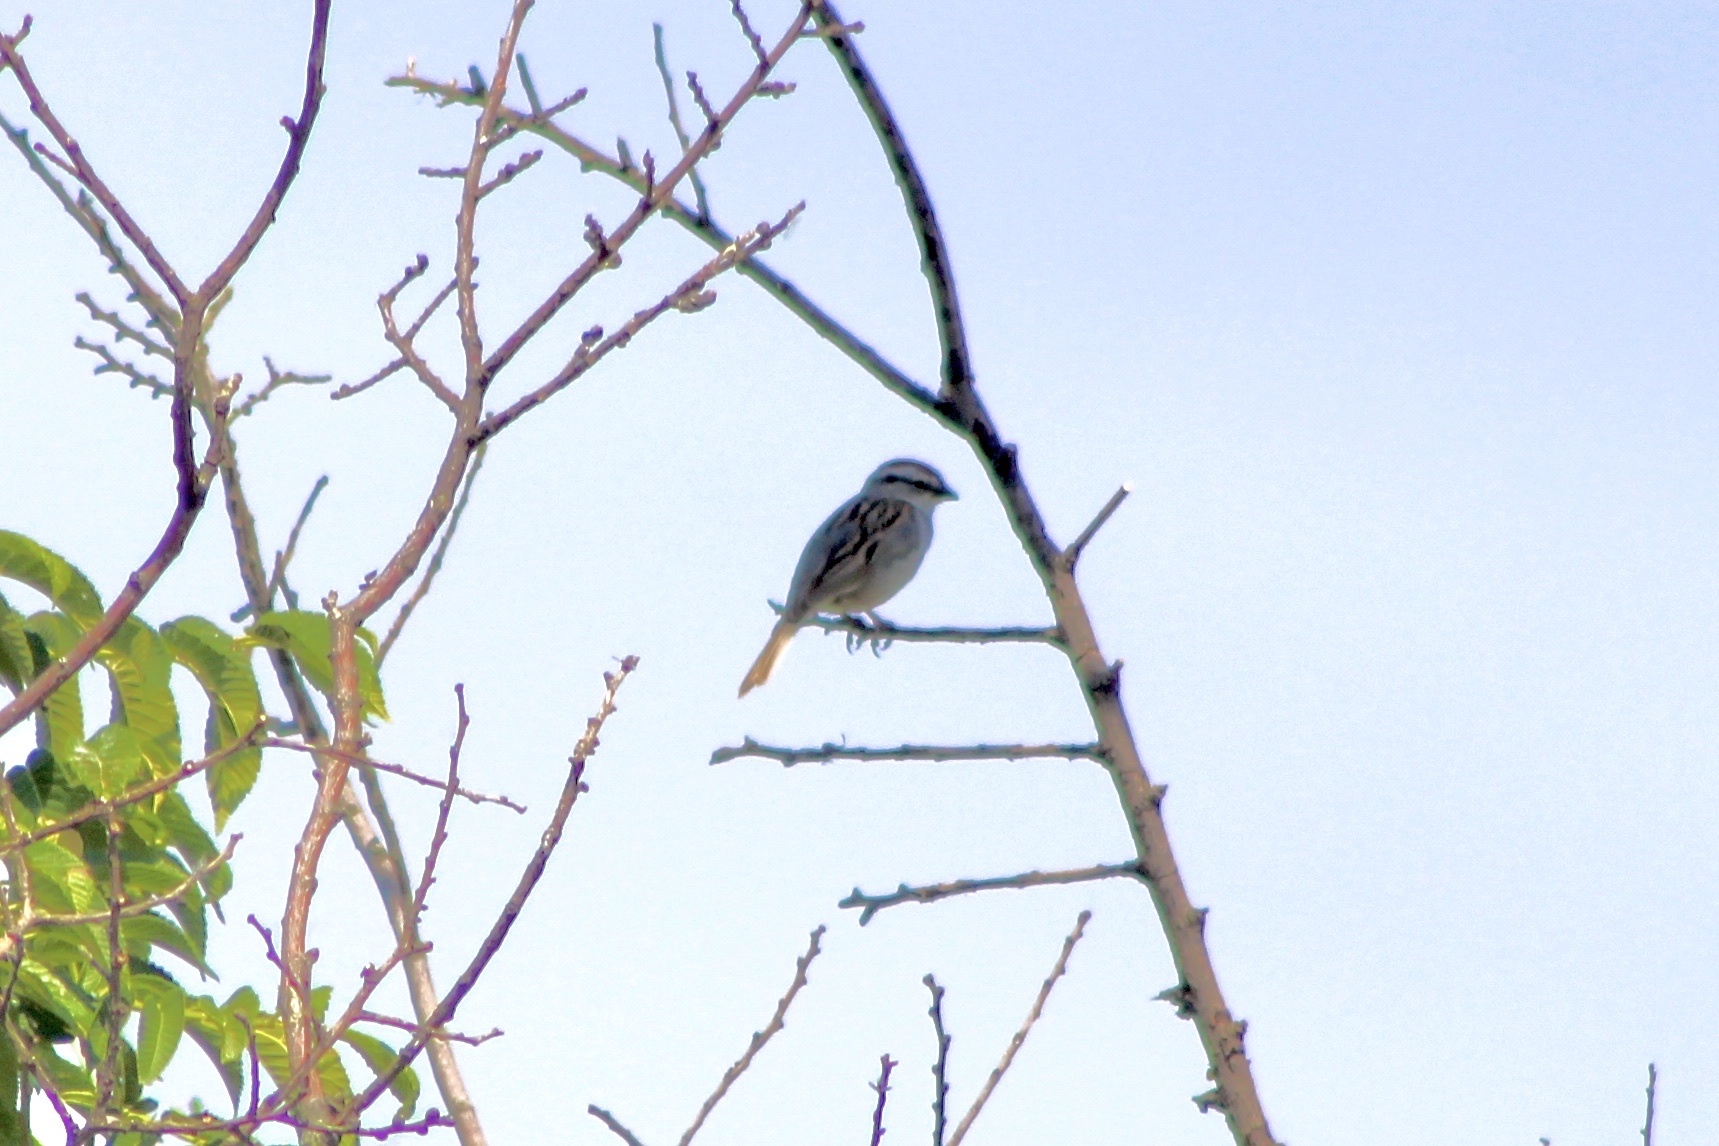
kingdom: Animalia
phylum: Chordata
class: Aves
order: Passeriformes
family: Passerellidae
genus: Spizella
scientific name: Spizella passerina
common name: Chipping sparrow
